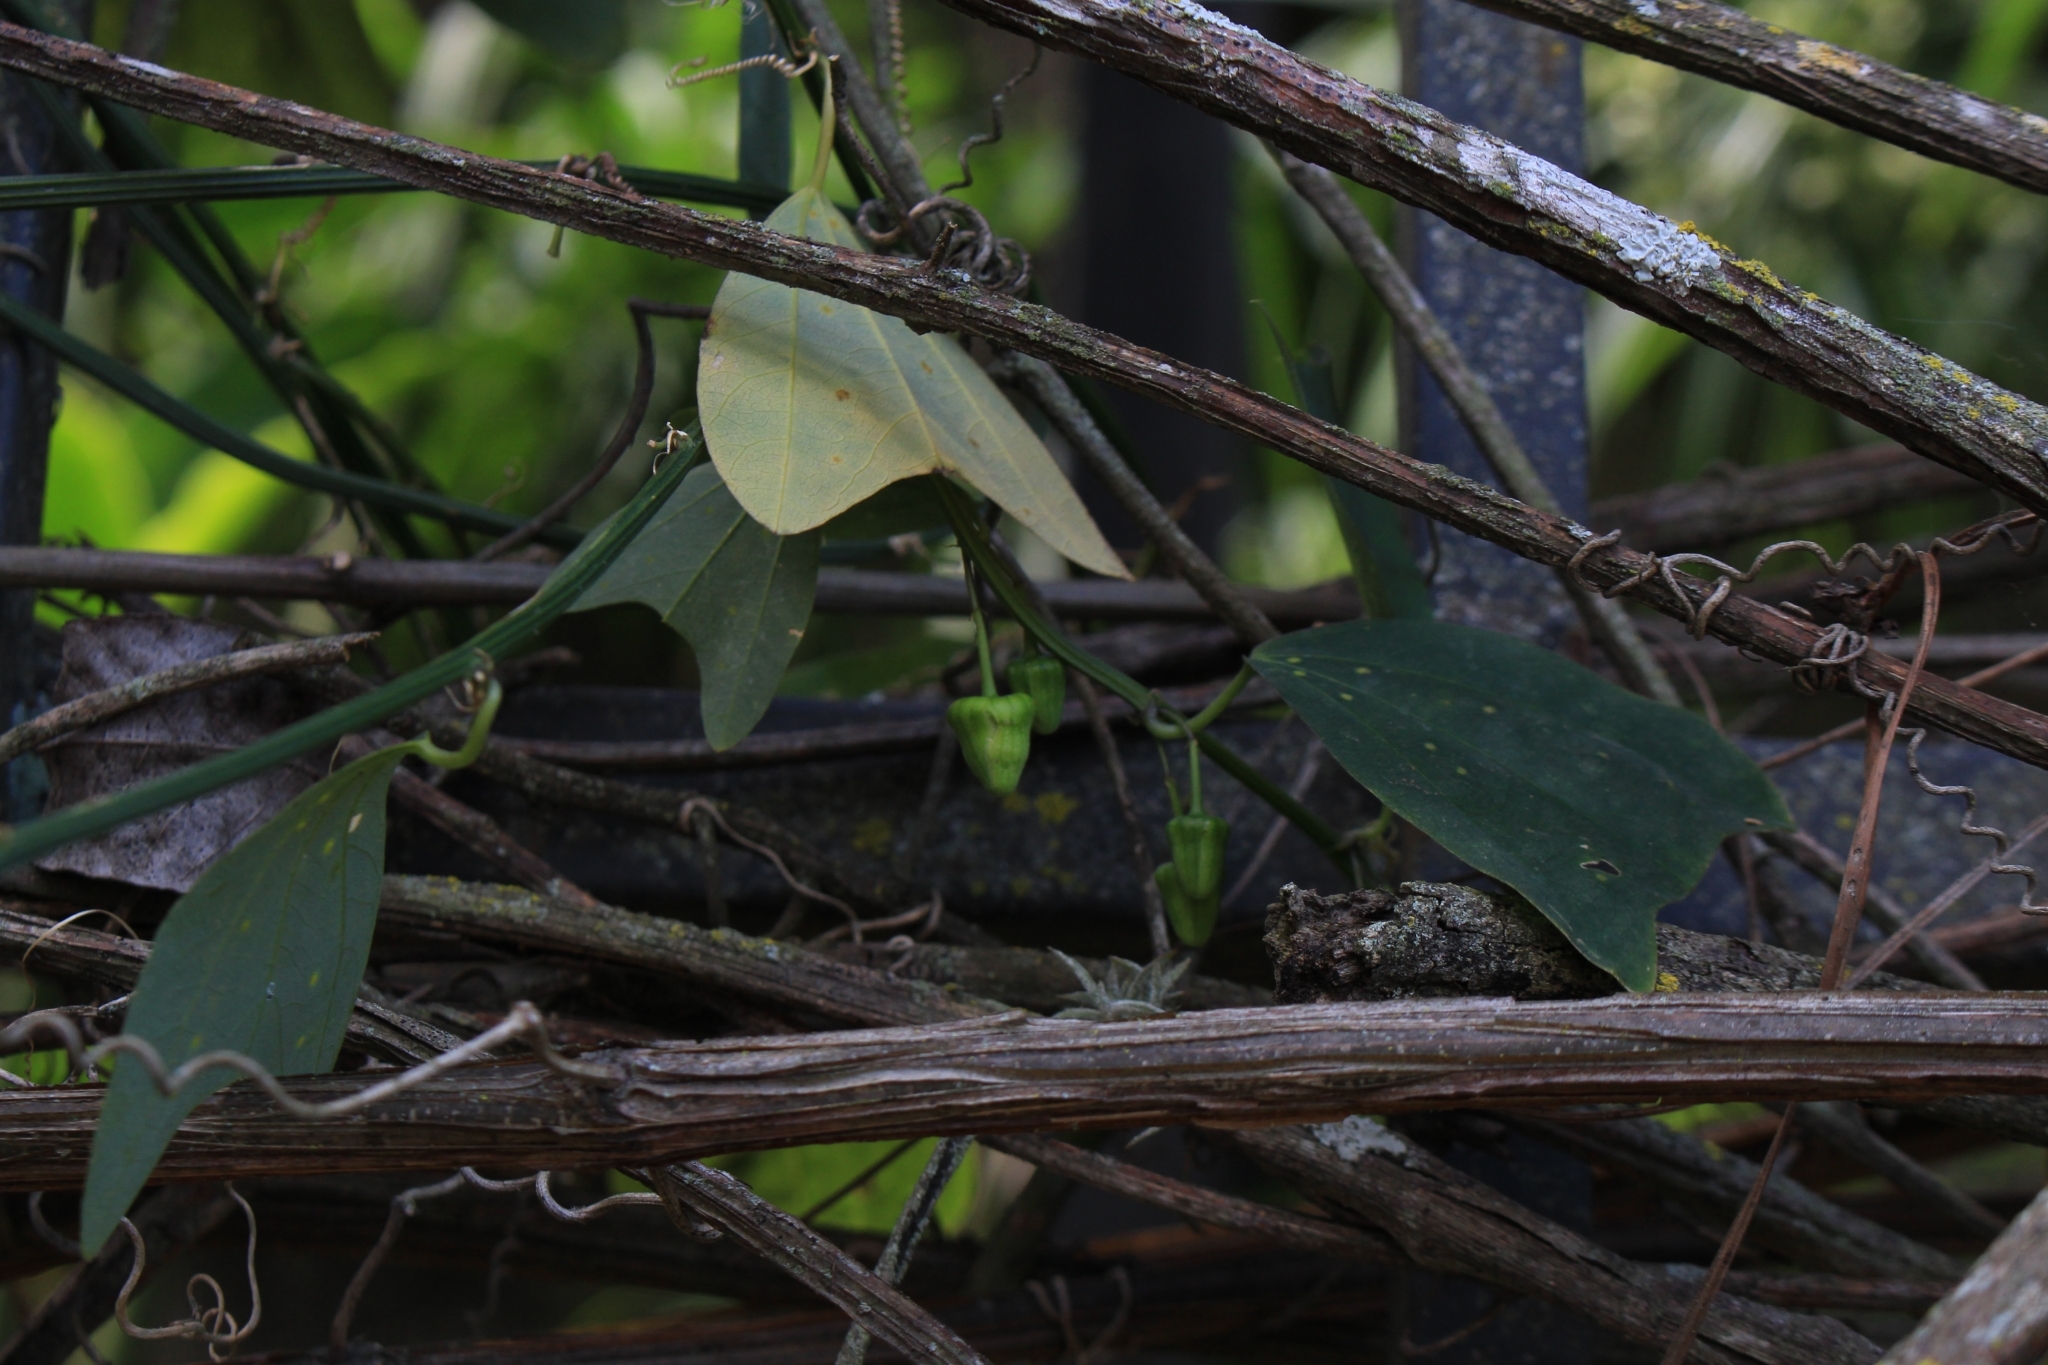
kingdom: Plantae
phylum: Tracheophyta
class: Magnoliopsida
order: Malpighiales
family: Passifloraceae
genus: Passiflora
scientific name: Passiflora biflora
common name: Twoflower passionflower
